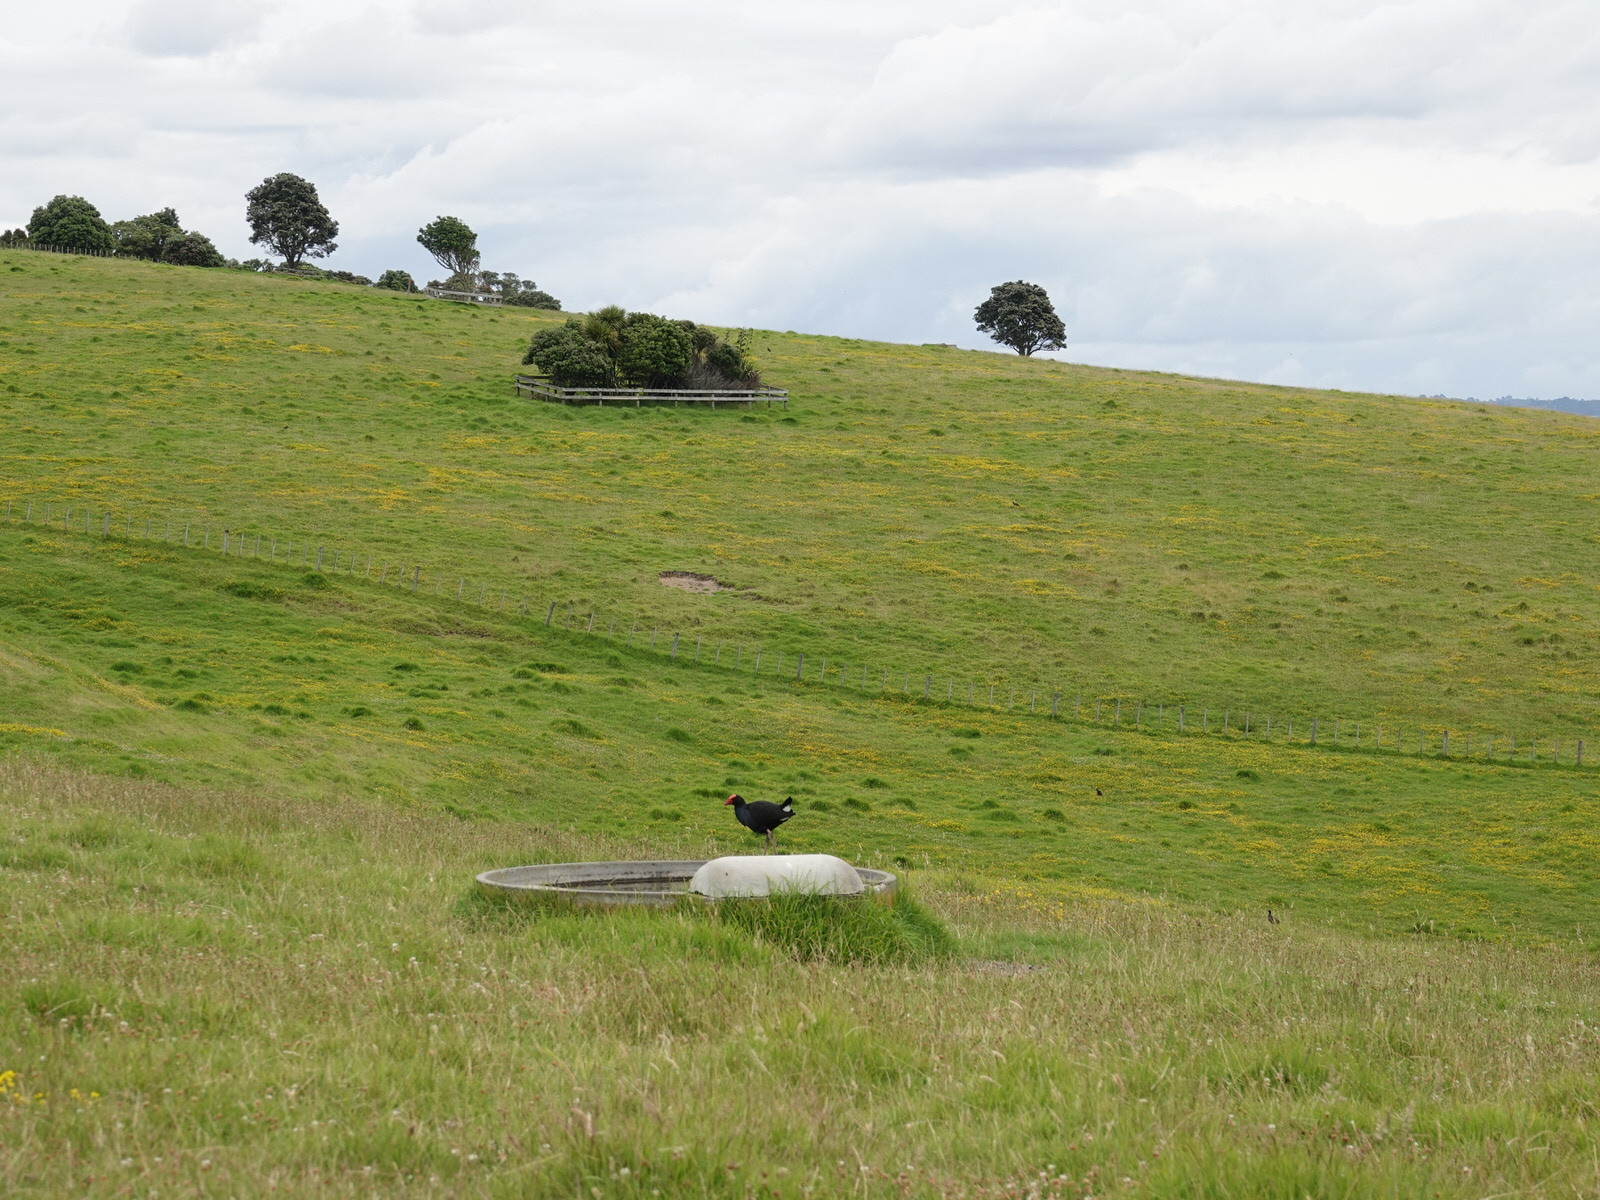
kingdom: Animalia
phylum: Chordata
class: Aves
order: Gruiformes
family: Rallidae
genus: Porphyrio
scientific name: Porphyrio melanotus
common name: Australasian swamphen
